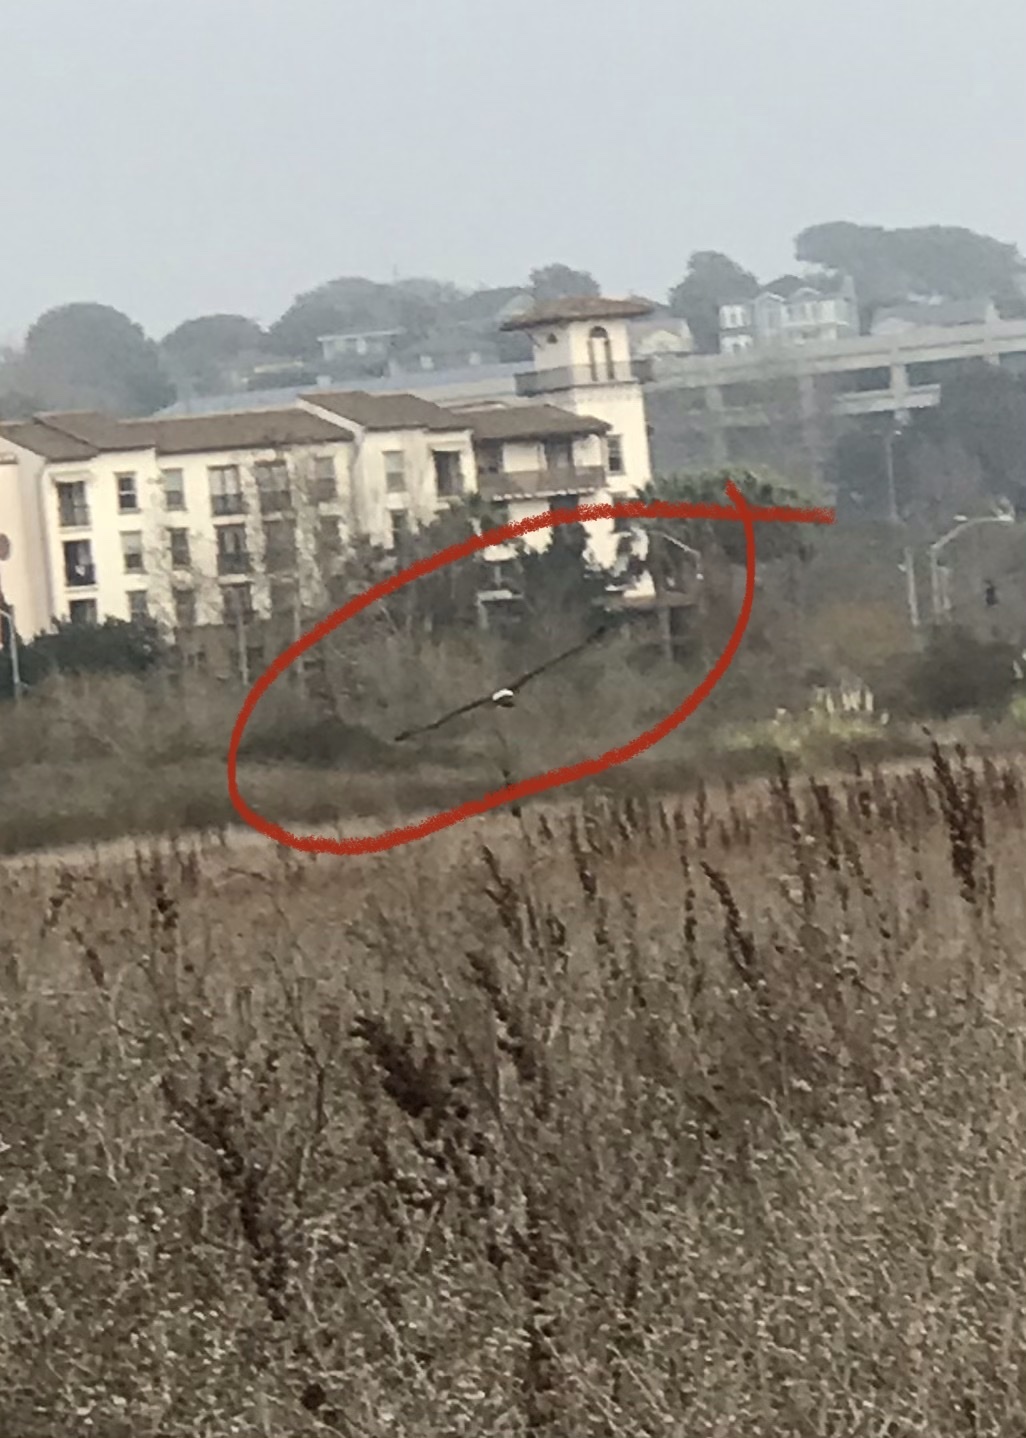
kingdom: Animalia
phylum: Chordata
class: Aves
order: Accipitriformes
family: Accipitridae
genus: Circus
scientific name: Circus cyaneus
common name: Hen harrier
